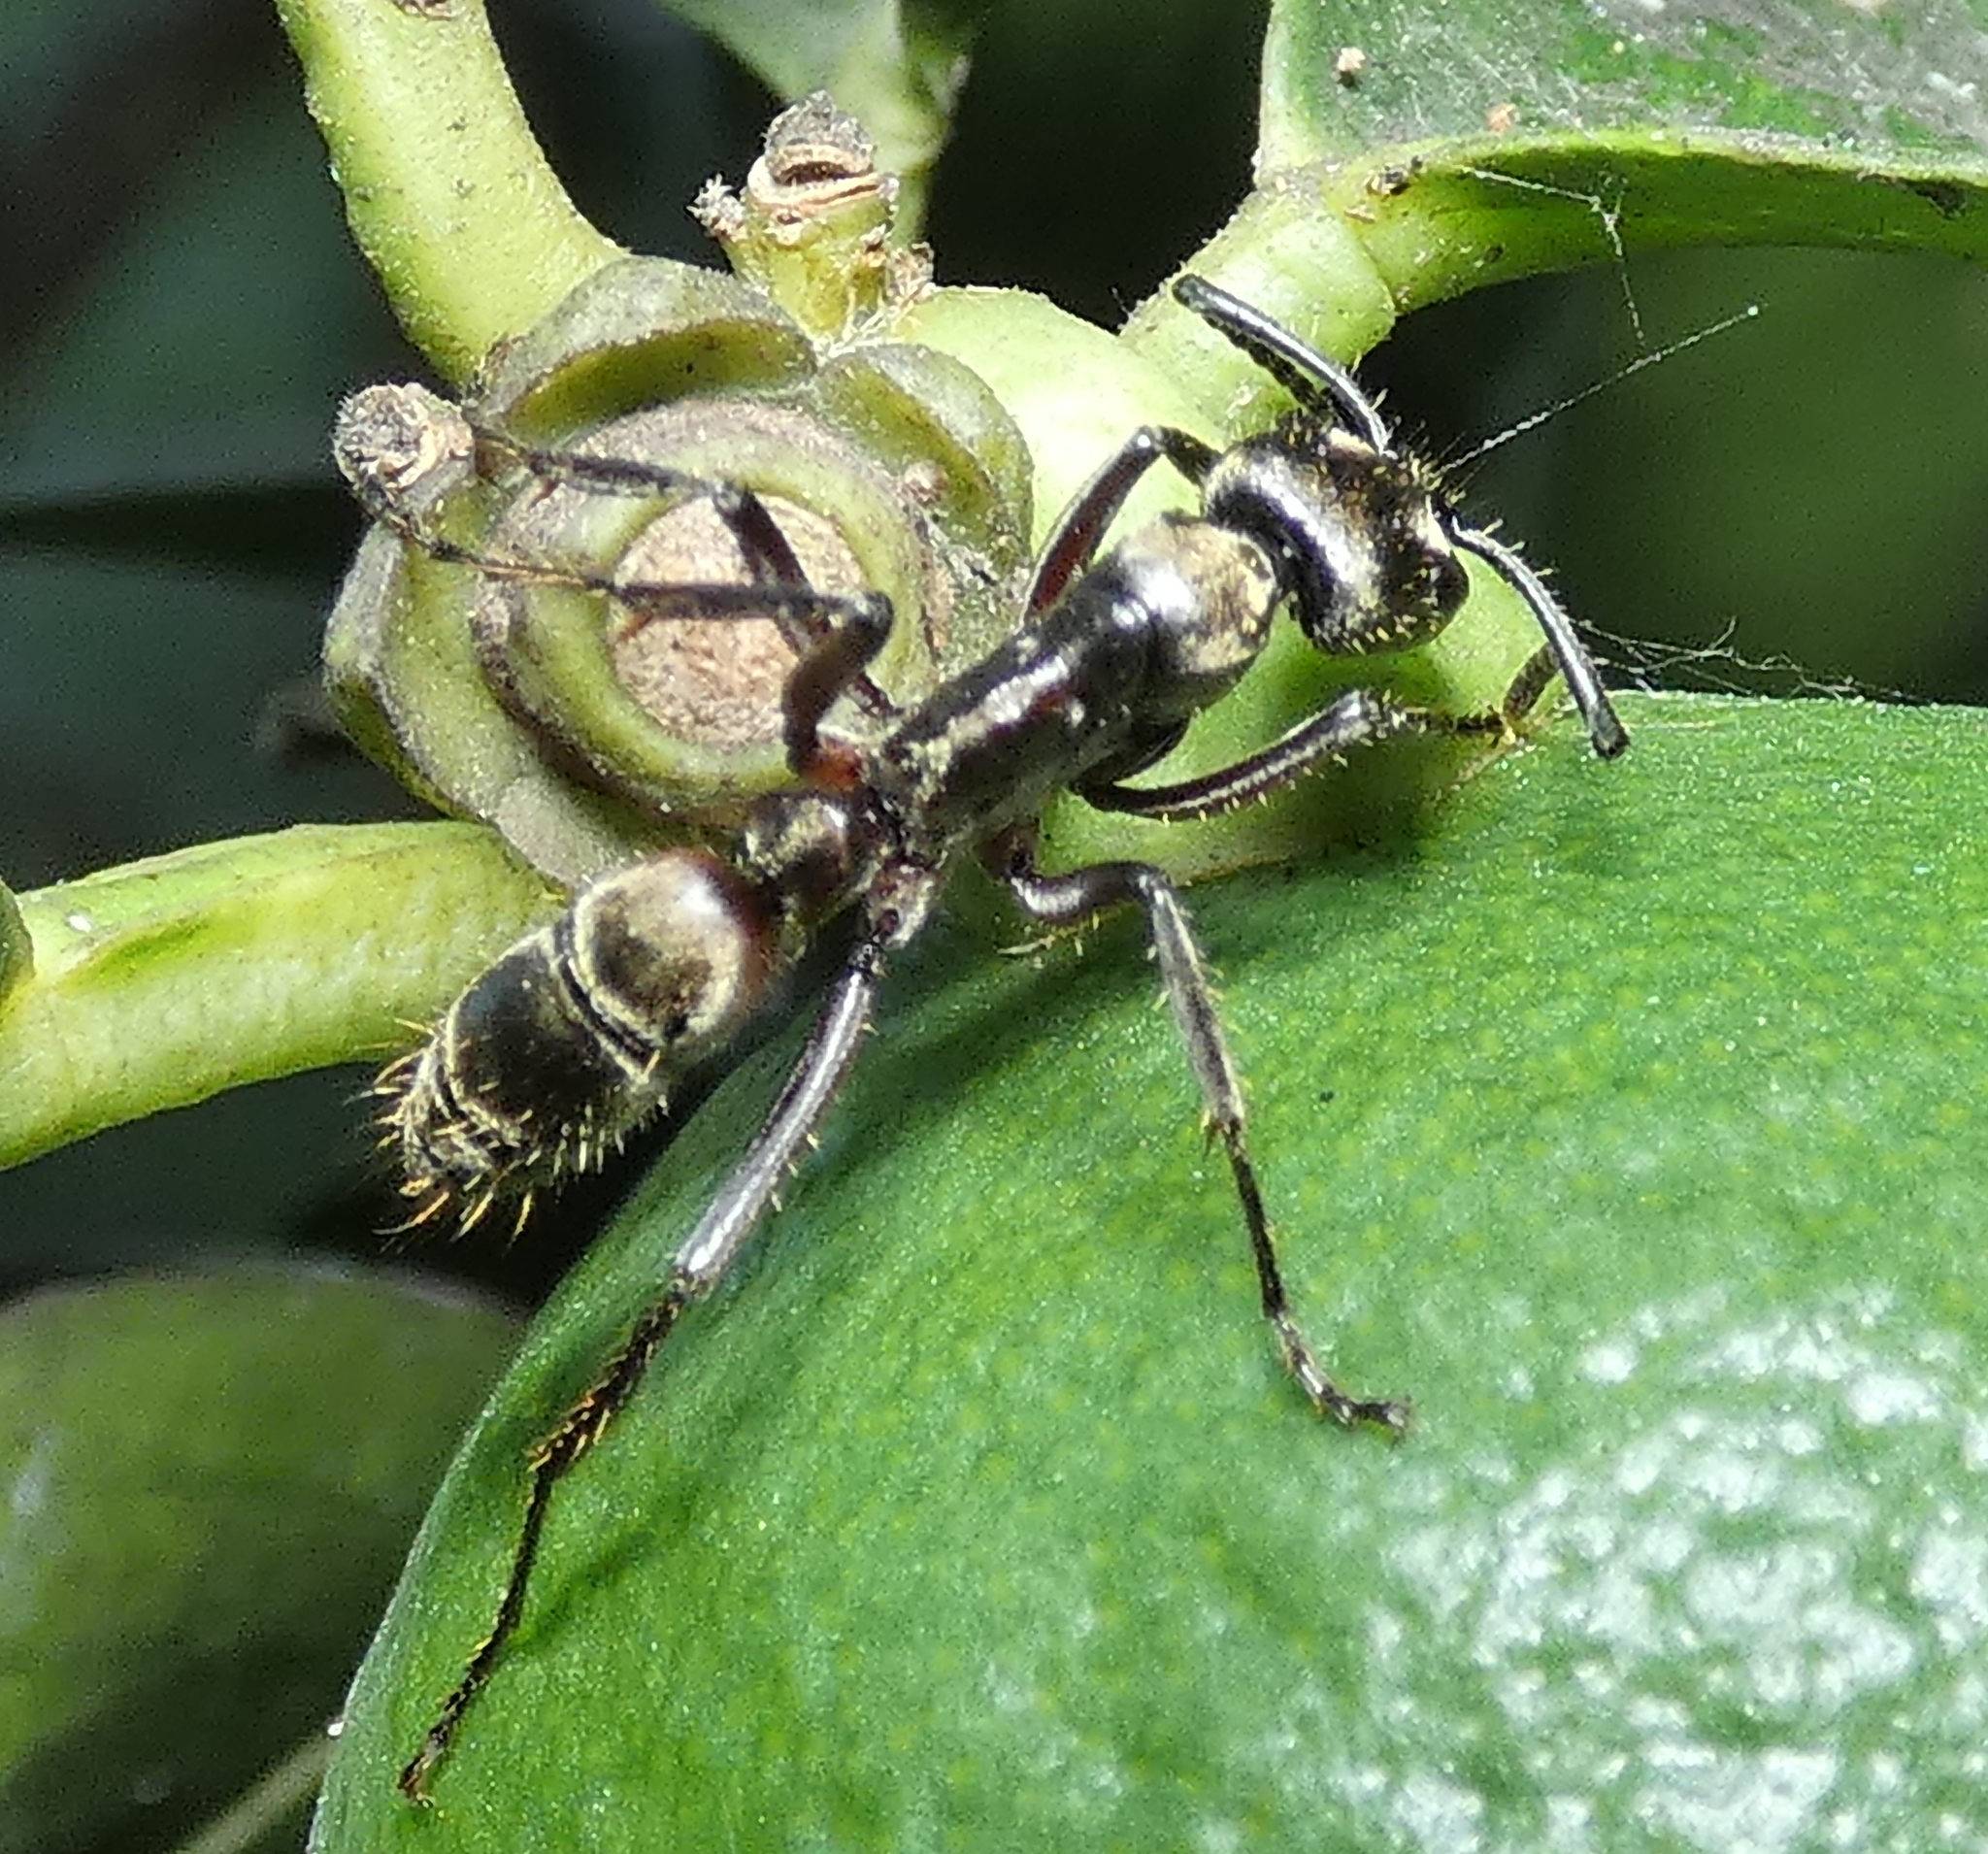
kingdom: Animalia
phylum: Arthropoda
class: Insecta
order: Hymenoptera
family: Formicidae
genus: Pachycondyla
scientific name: Pachycondyla villosa
